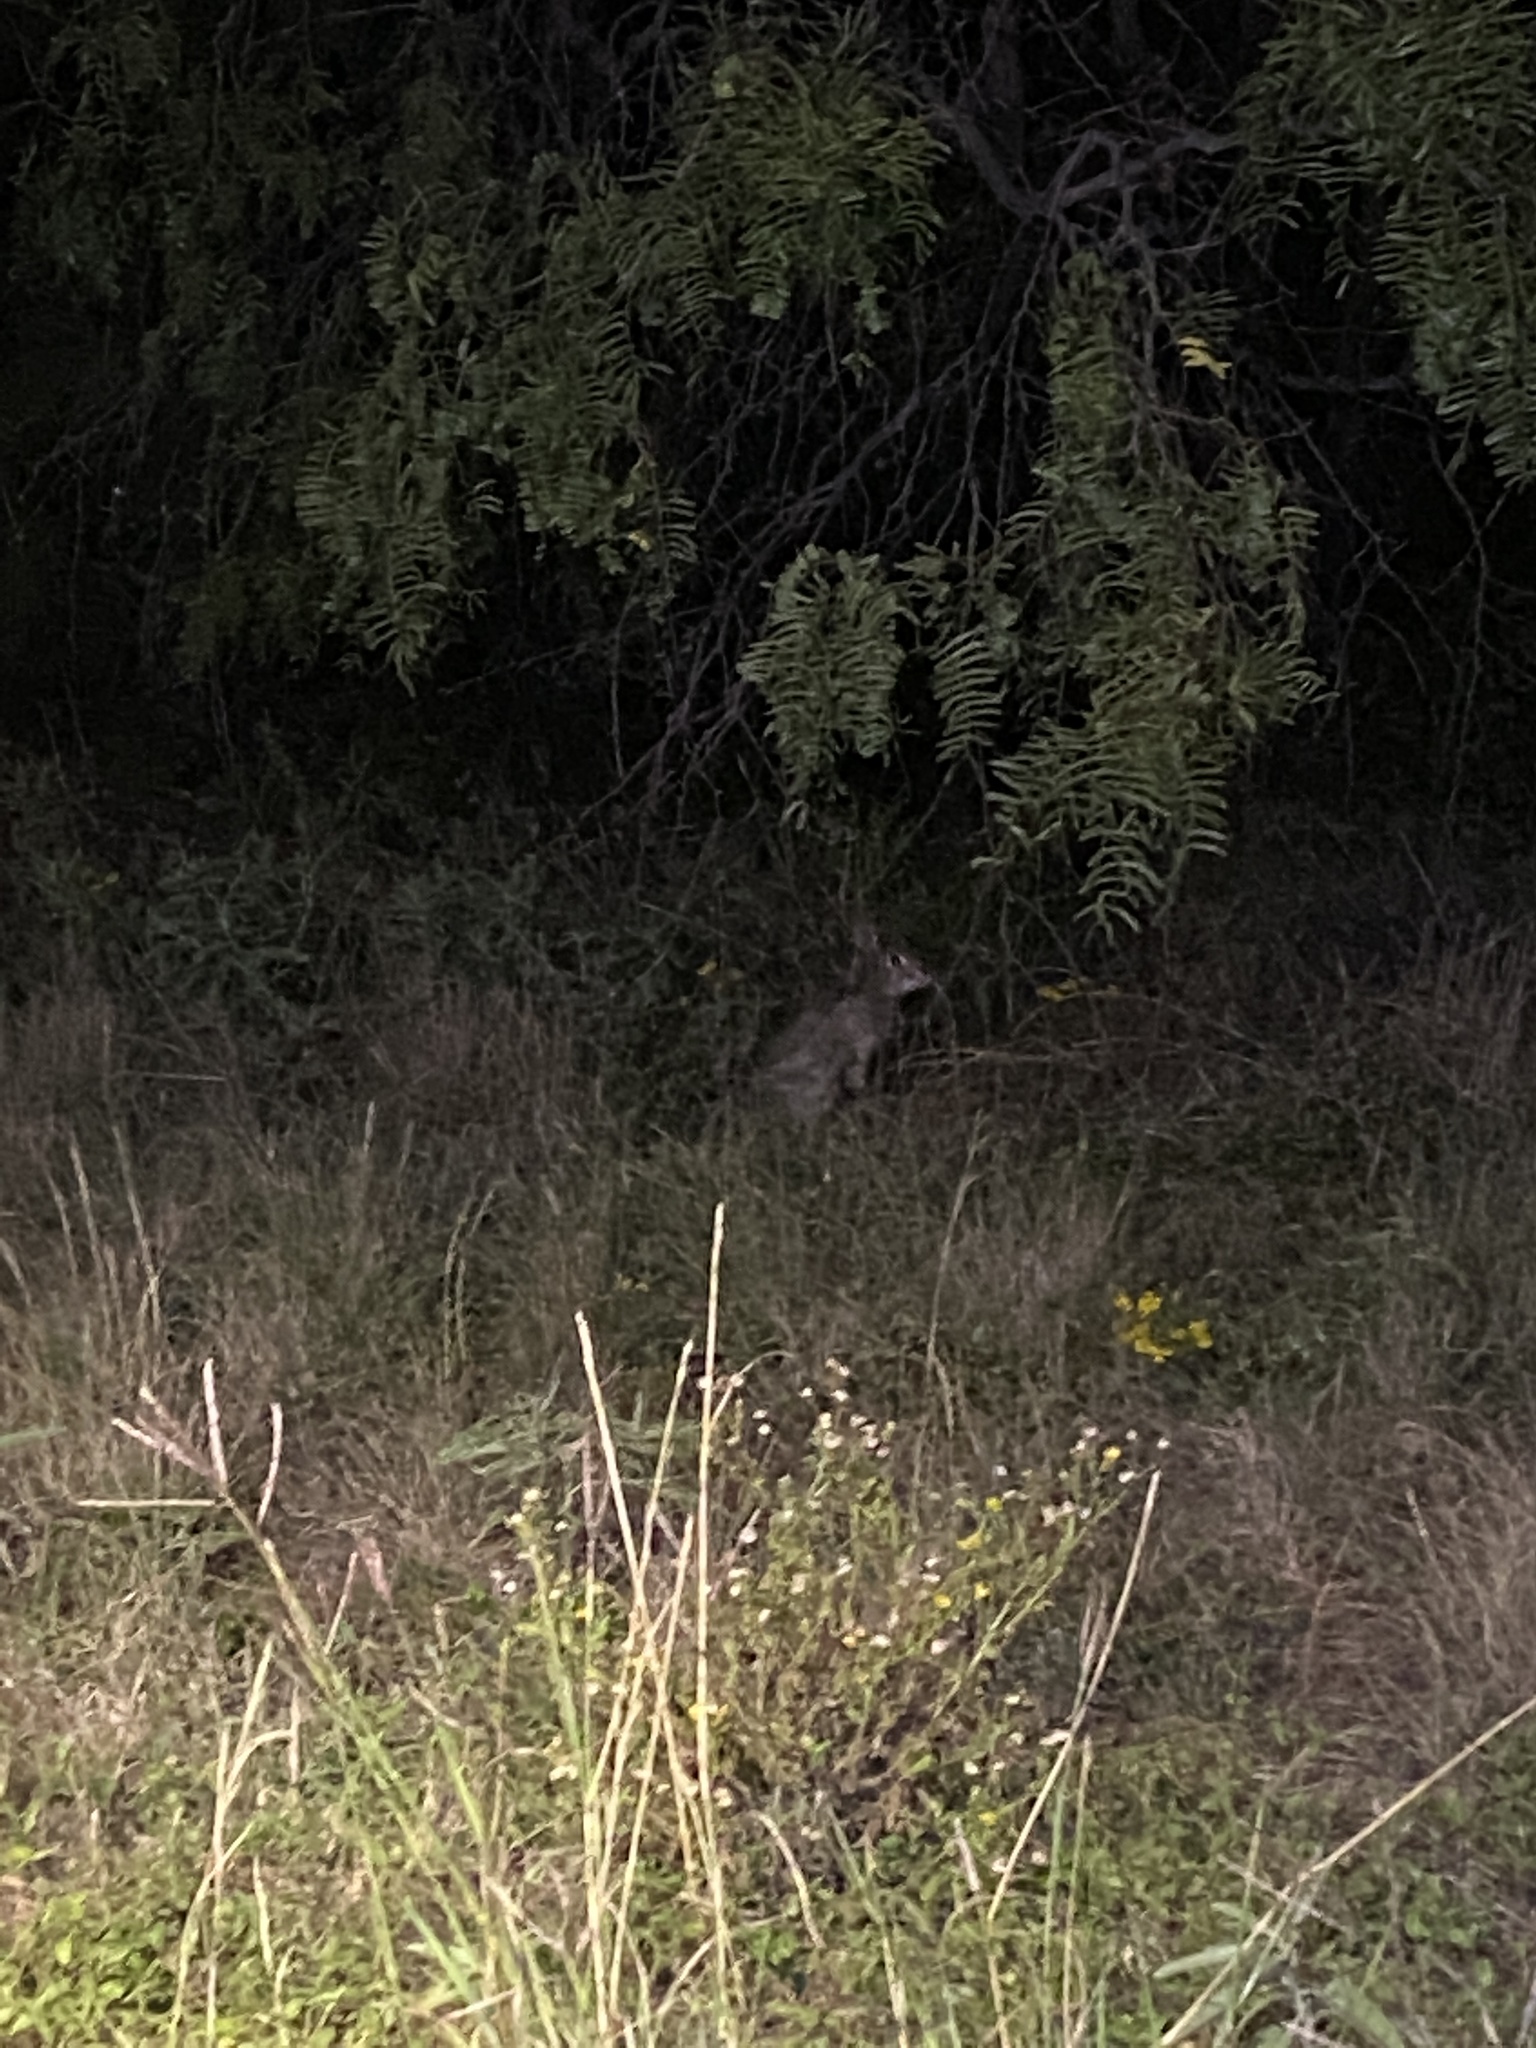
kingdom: Animalia
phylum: Chordata
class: Mammalia
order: Lagomorpha
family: Leporidae
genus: Sylvilagus
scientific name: Sylvilagus floridanus
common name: Eastern cottontail
